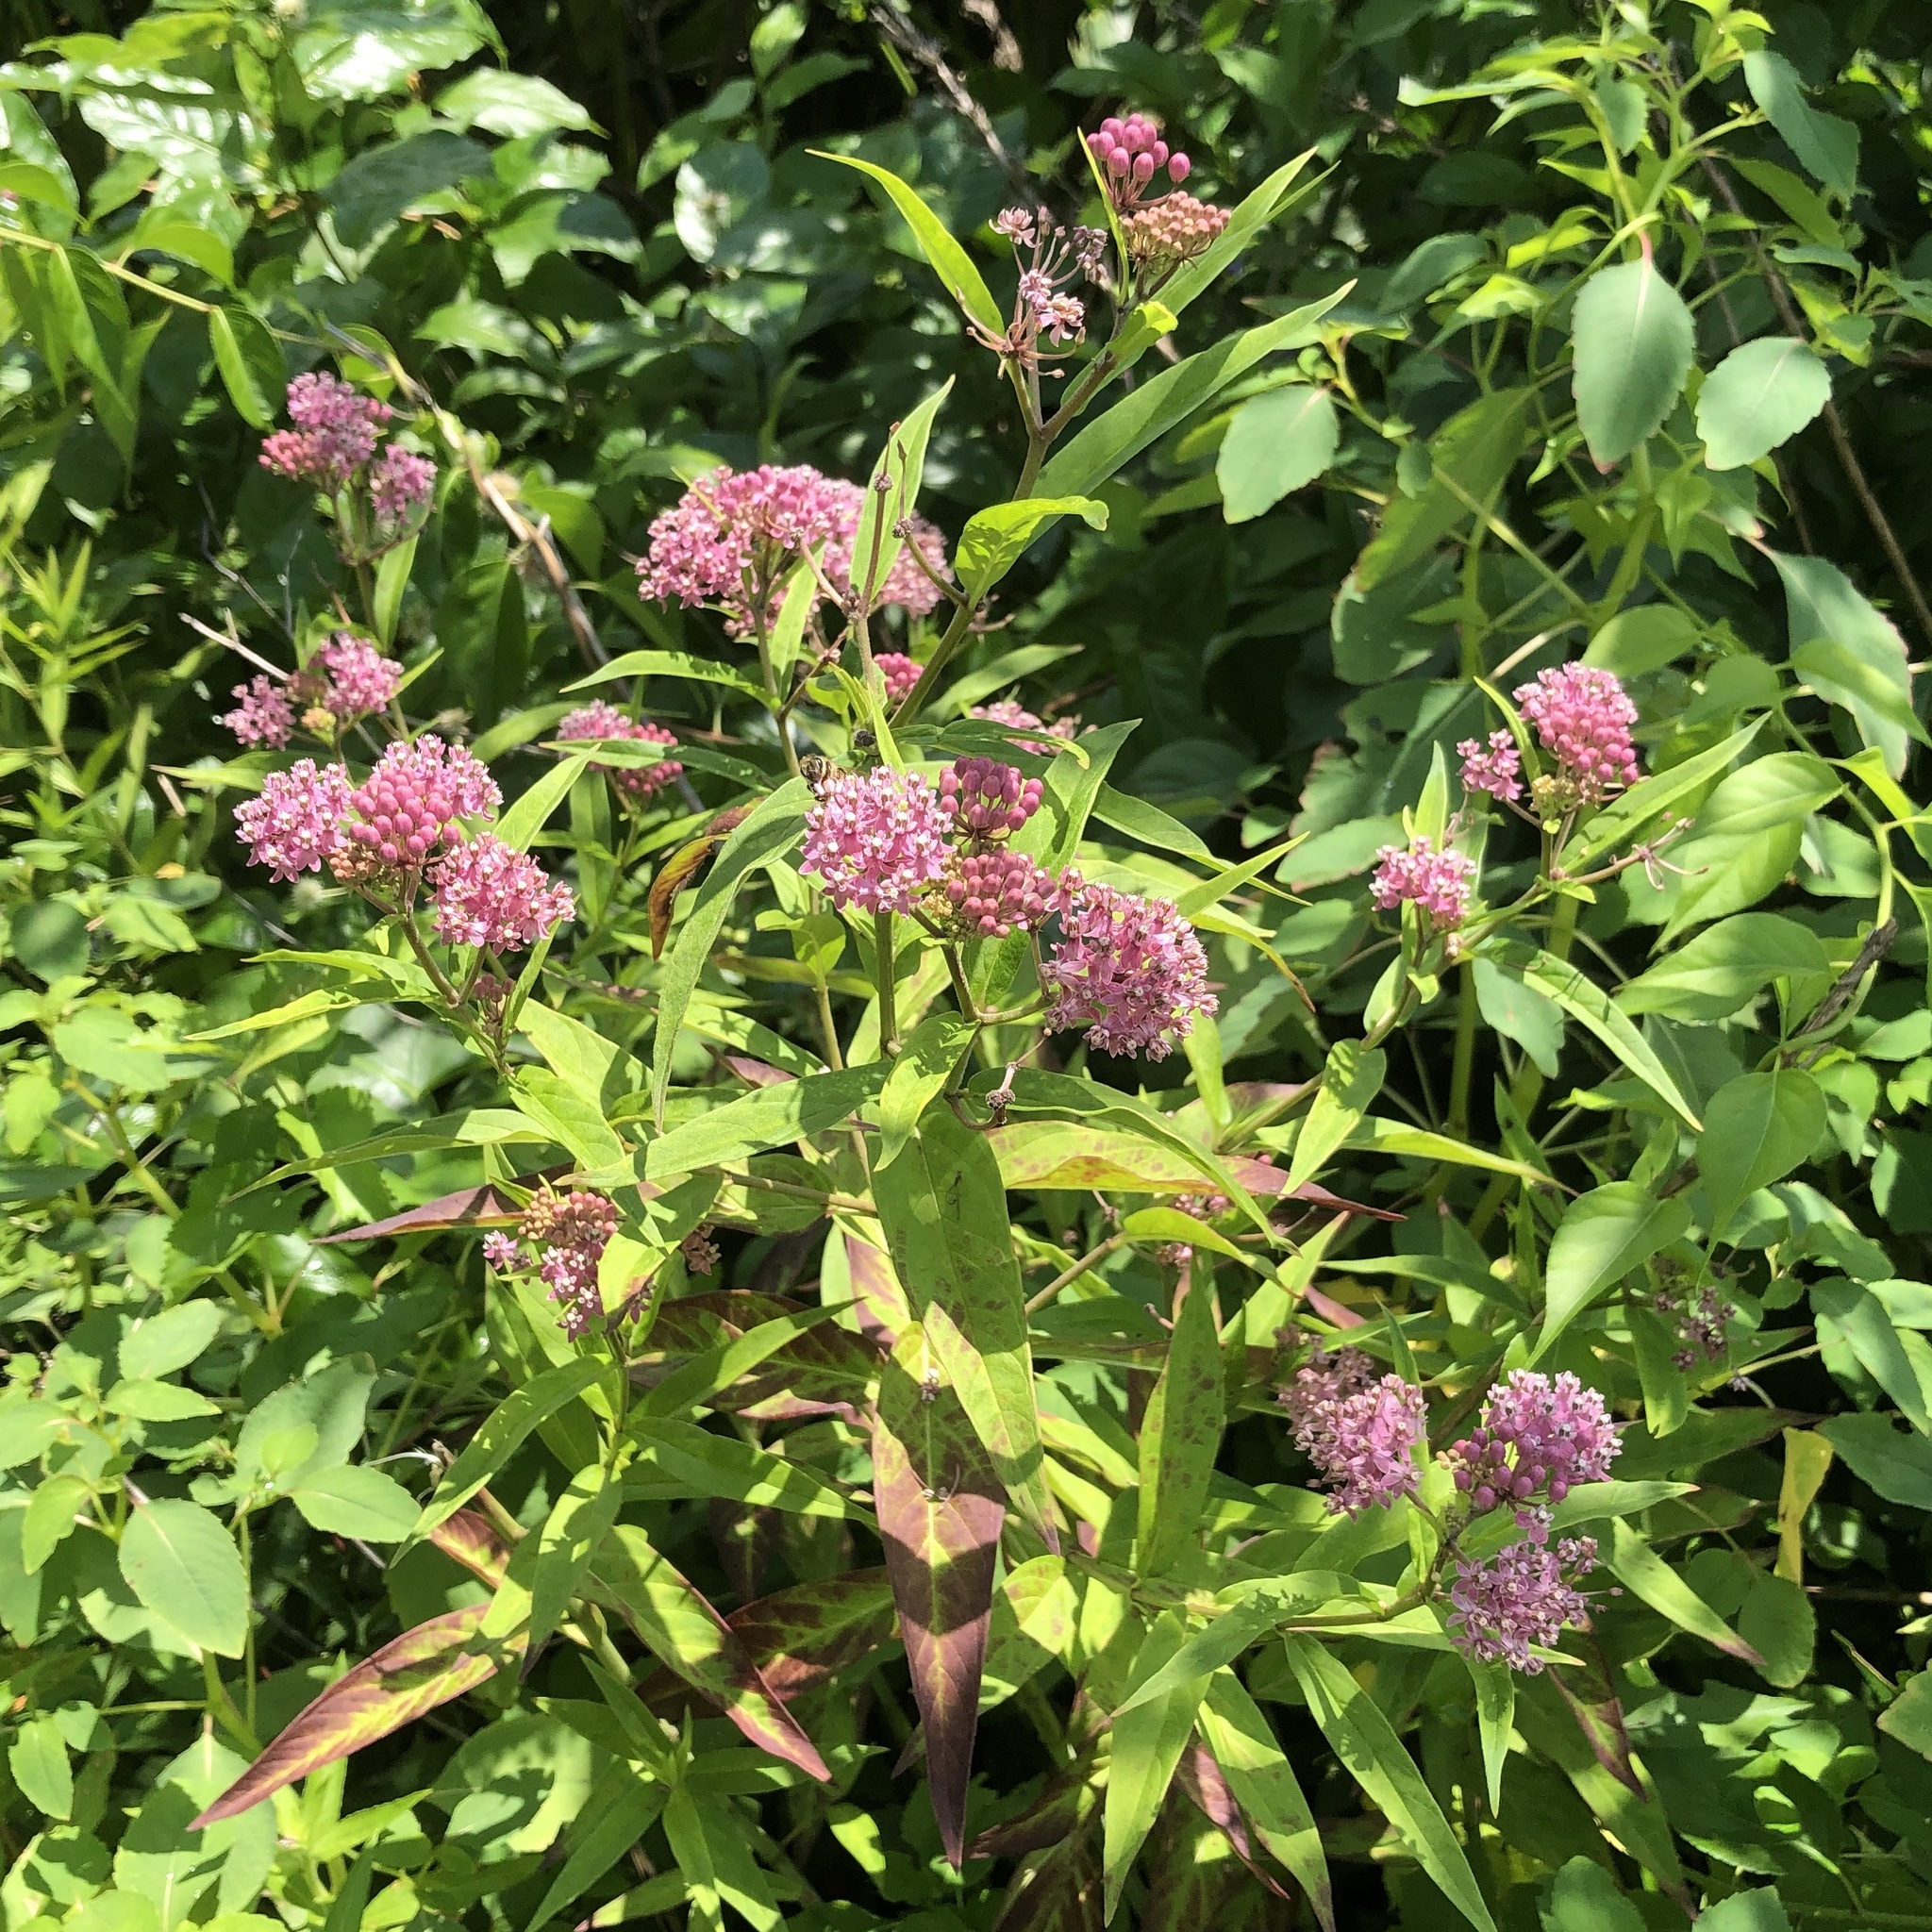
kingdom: Plantae
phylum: Tracheophyta
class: Magnoliopsida
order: Gentianales
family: Apocynaceae
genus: Asclepias
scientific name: Asclepias incarnata
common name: Swamp milkweed
